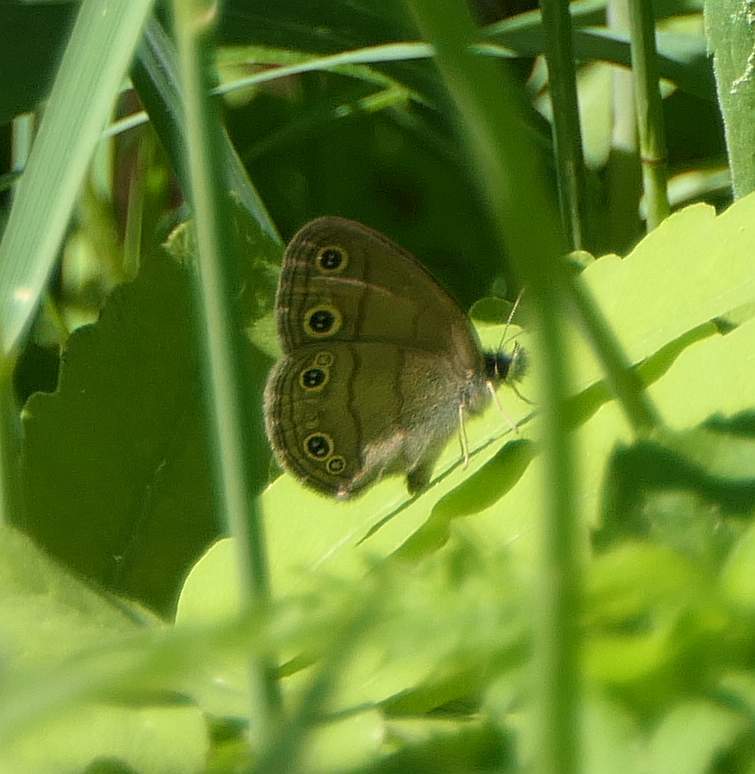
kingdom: Animalia
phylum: Arthropoda
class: Insecta
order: Lepidoptera
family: Nymphalidae
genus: Euptychia
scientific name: Euptychia cymela
